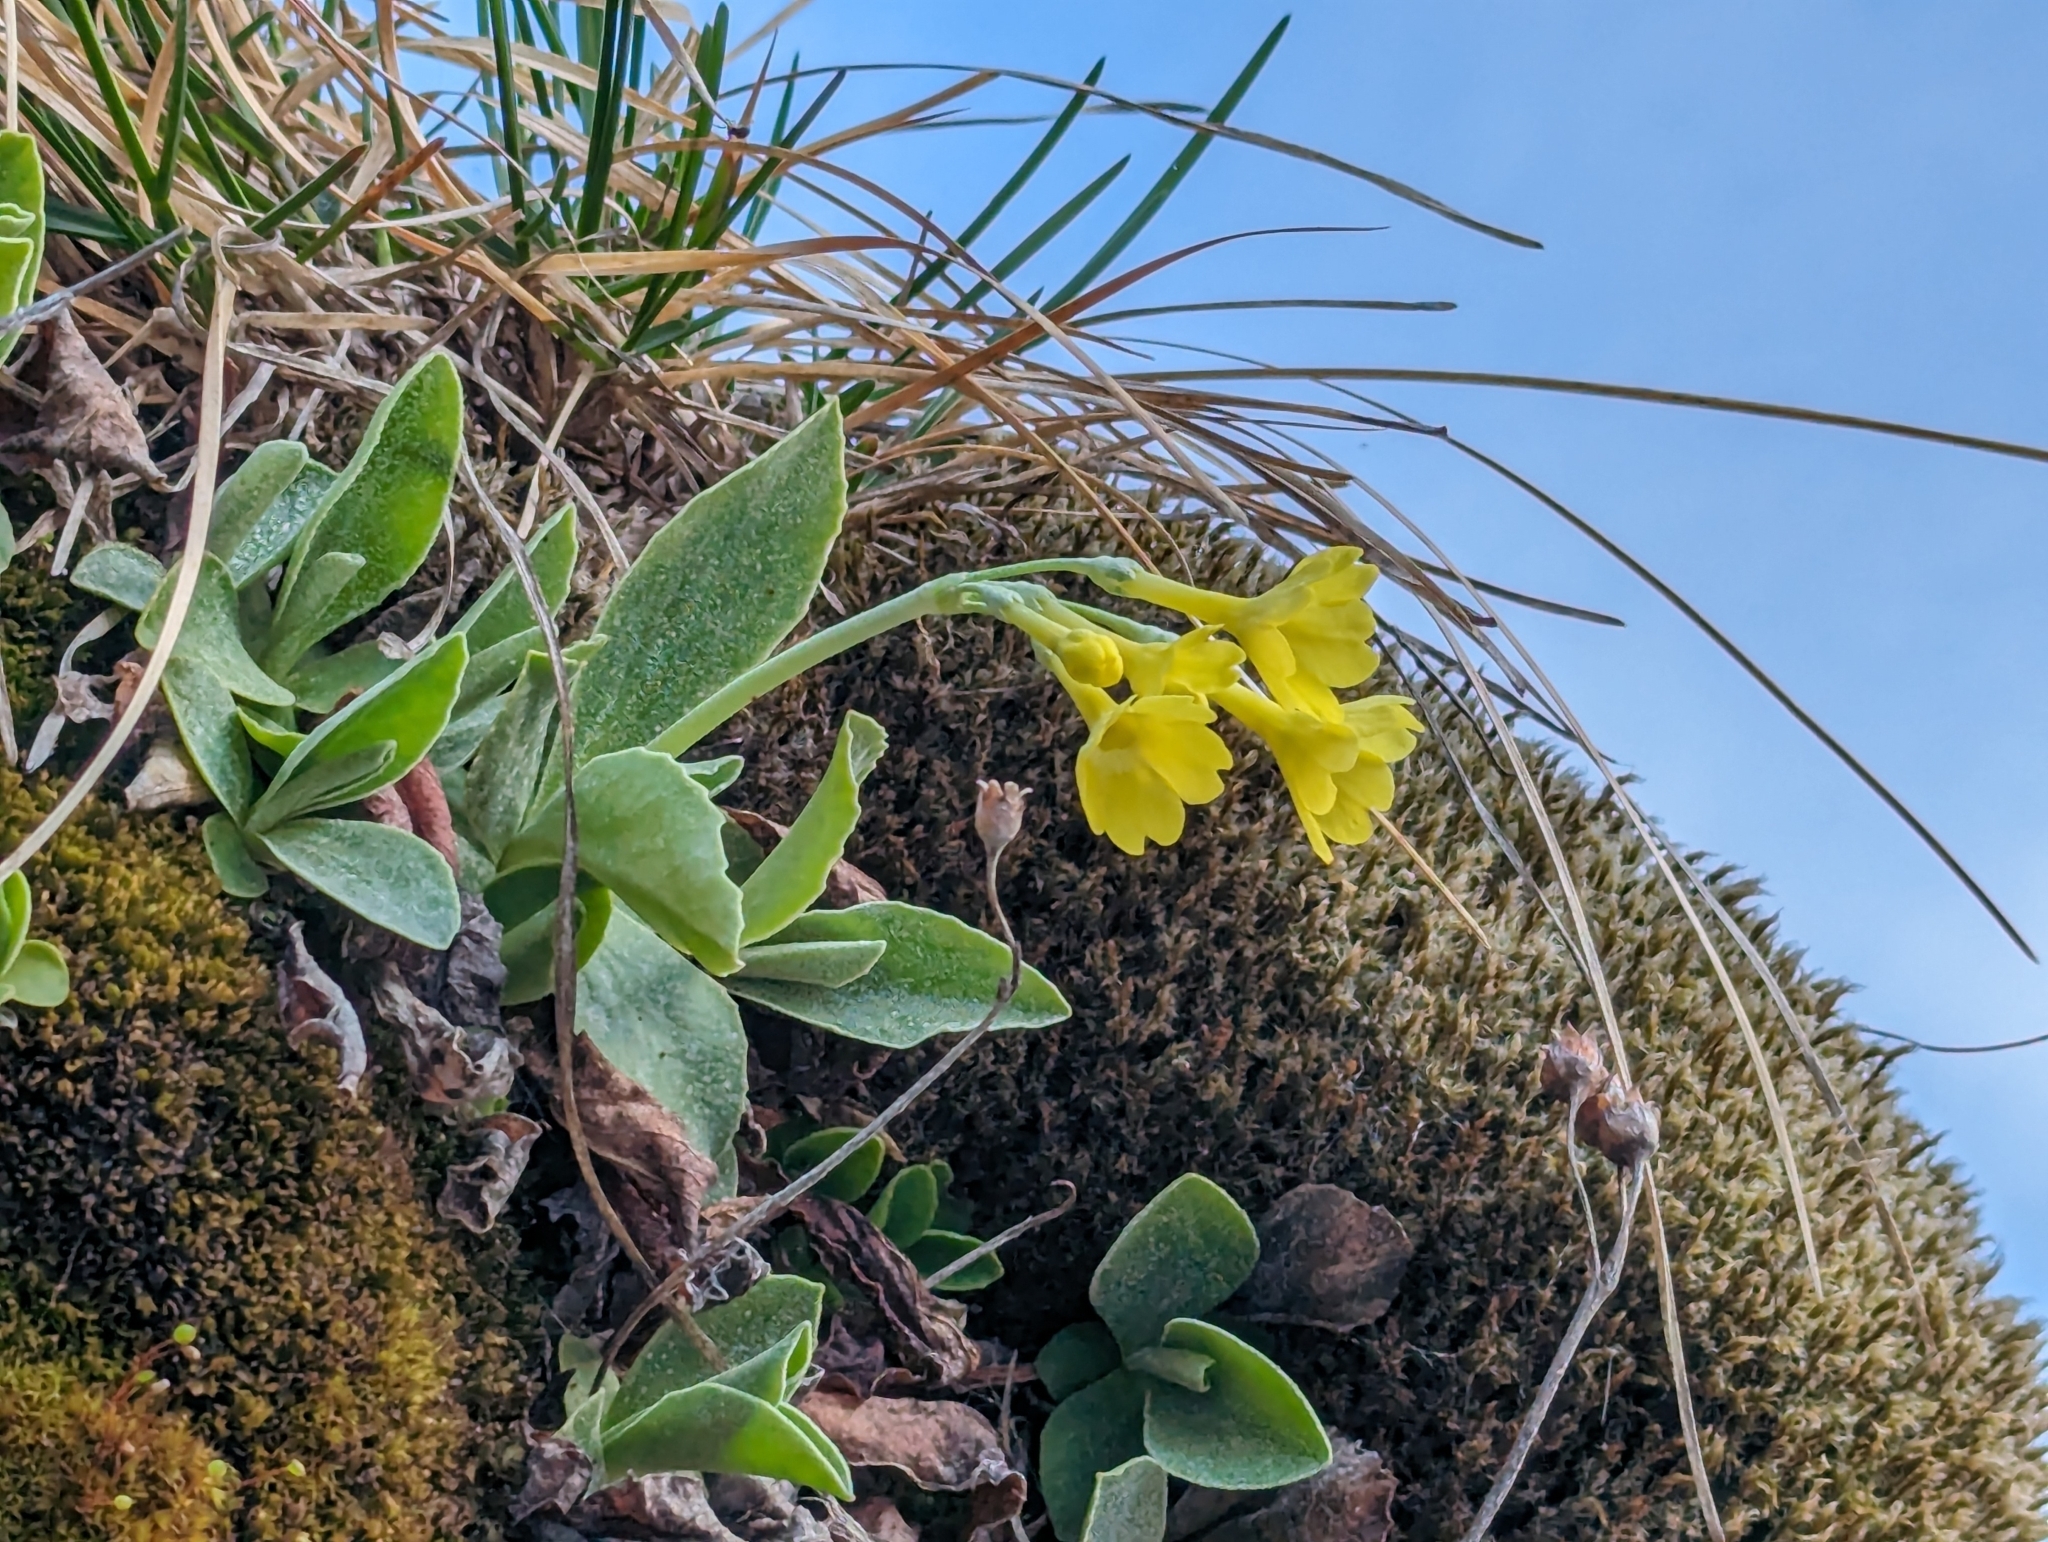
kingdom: Plantae
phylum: Tracheophyta
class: Magnoliopsida
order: Ericales
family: Primulaceae
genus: Primula
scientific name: Primula auricula
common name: Auricula
